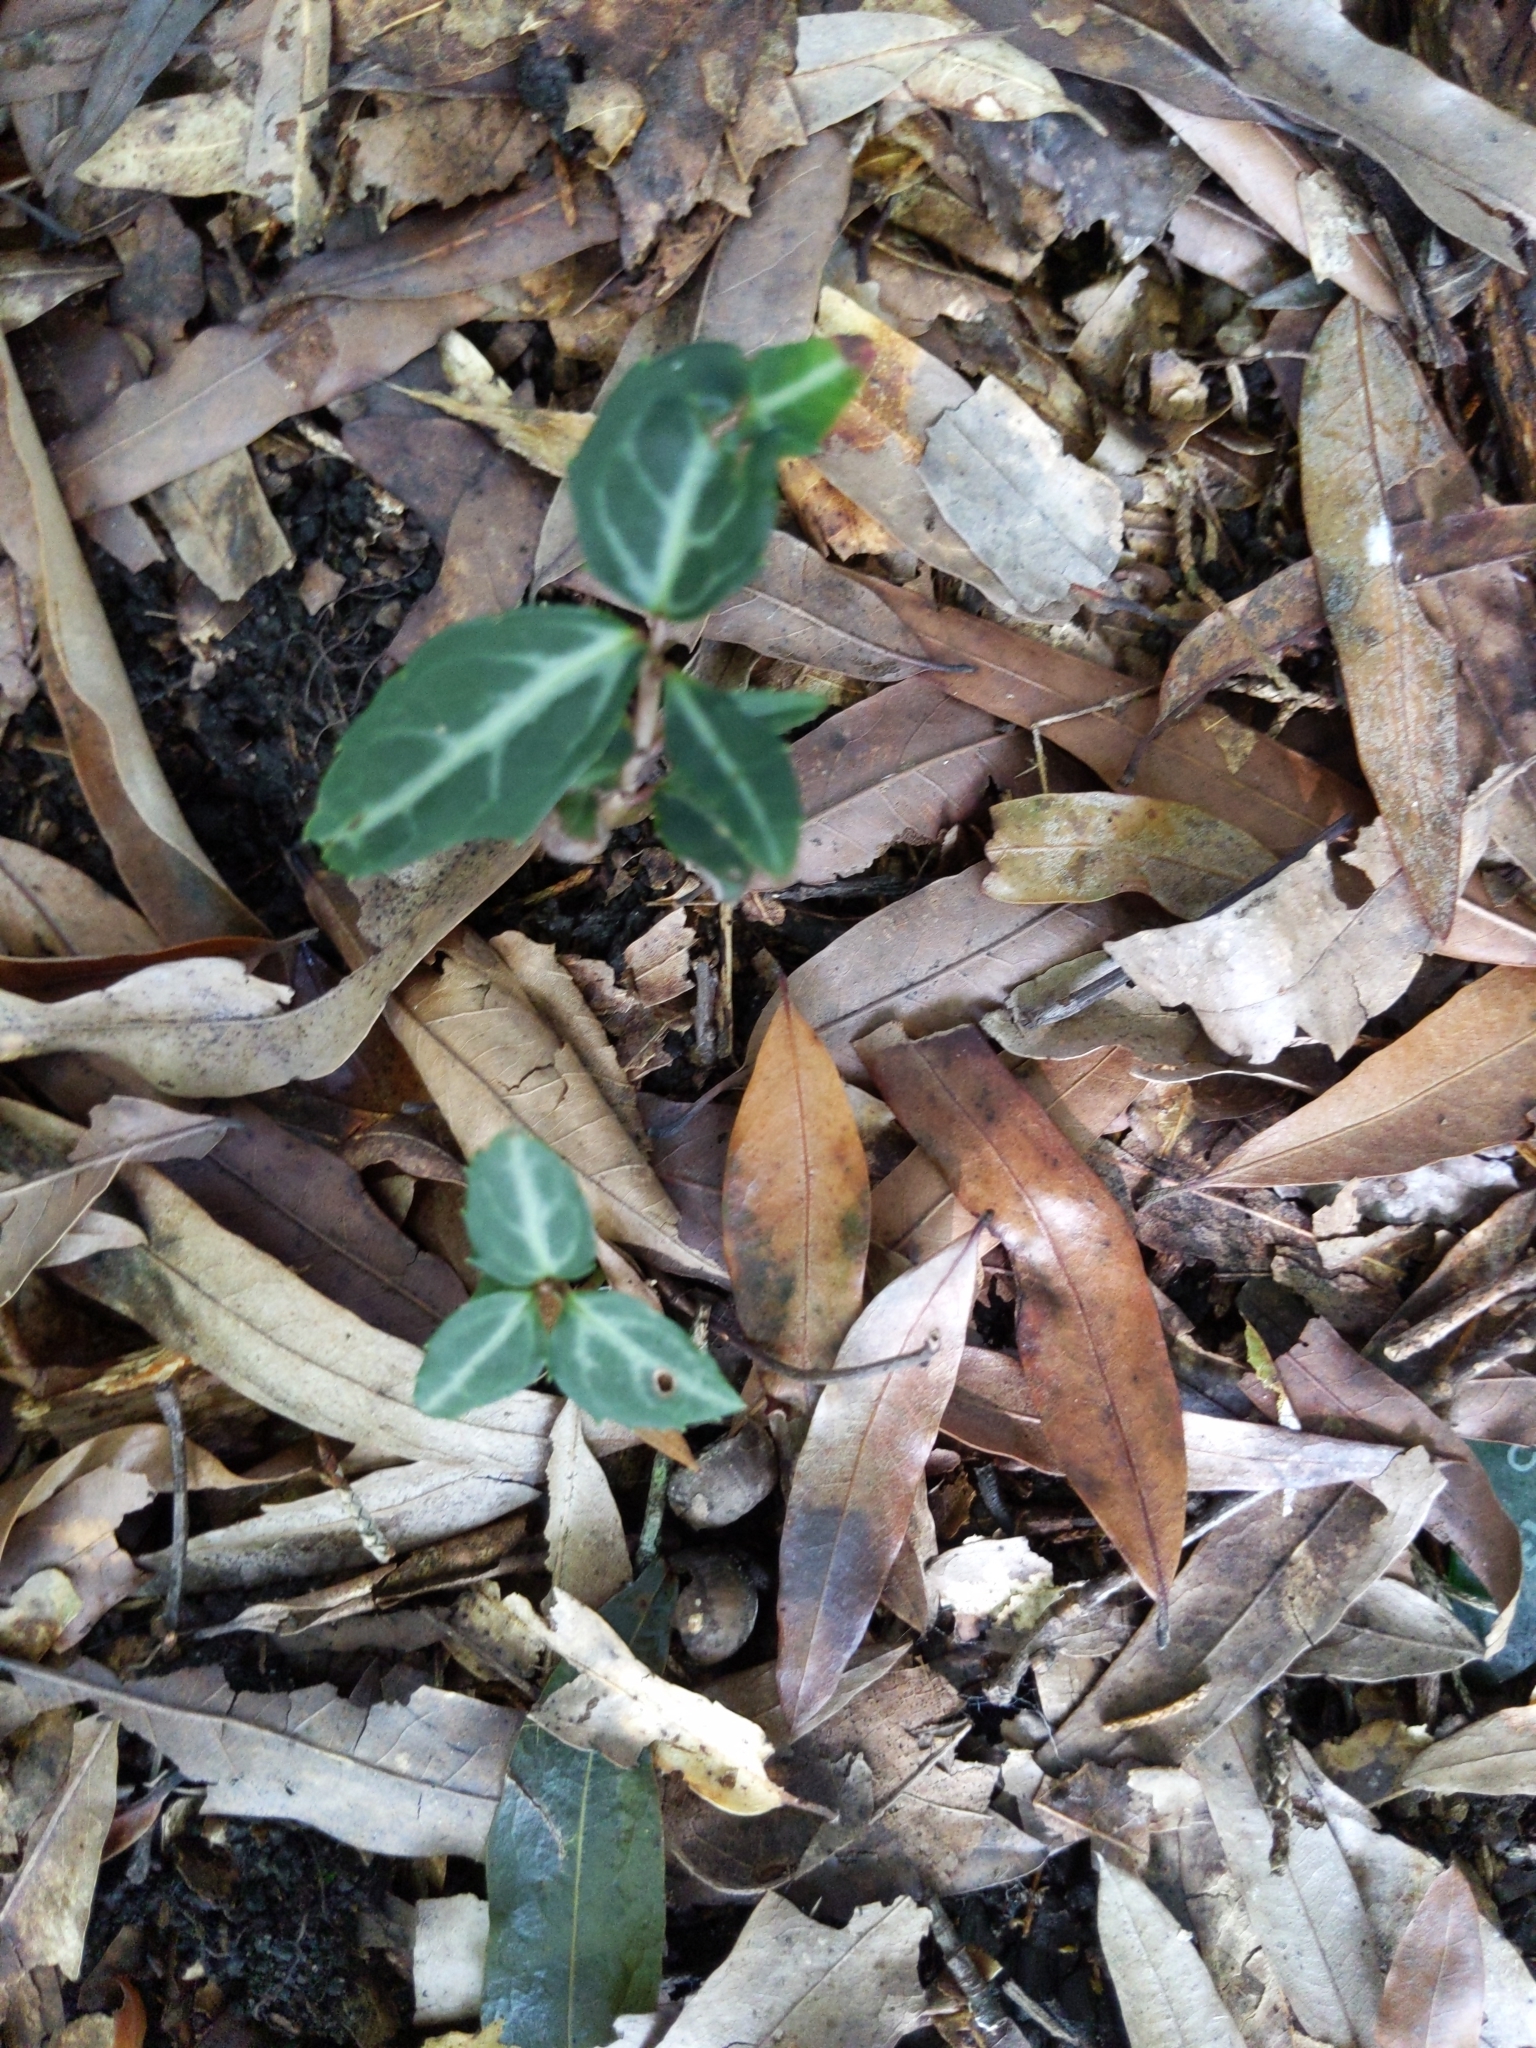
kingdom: Plantae
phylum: Tracheophyta
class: Magnoliopsida
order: Ericales
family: Ericaceae
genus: Chimaphila
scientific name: Chimaphila maculata
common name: Spotted pipsissewa
